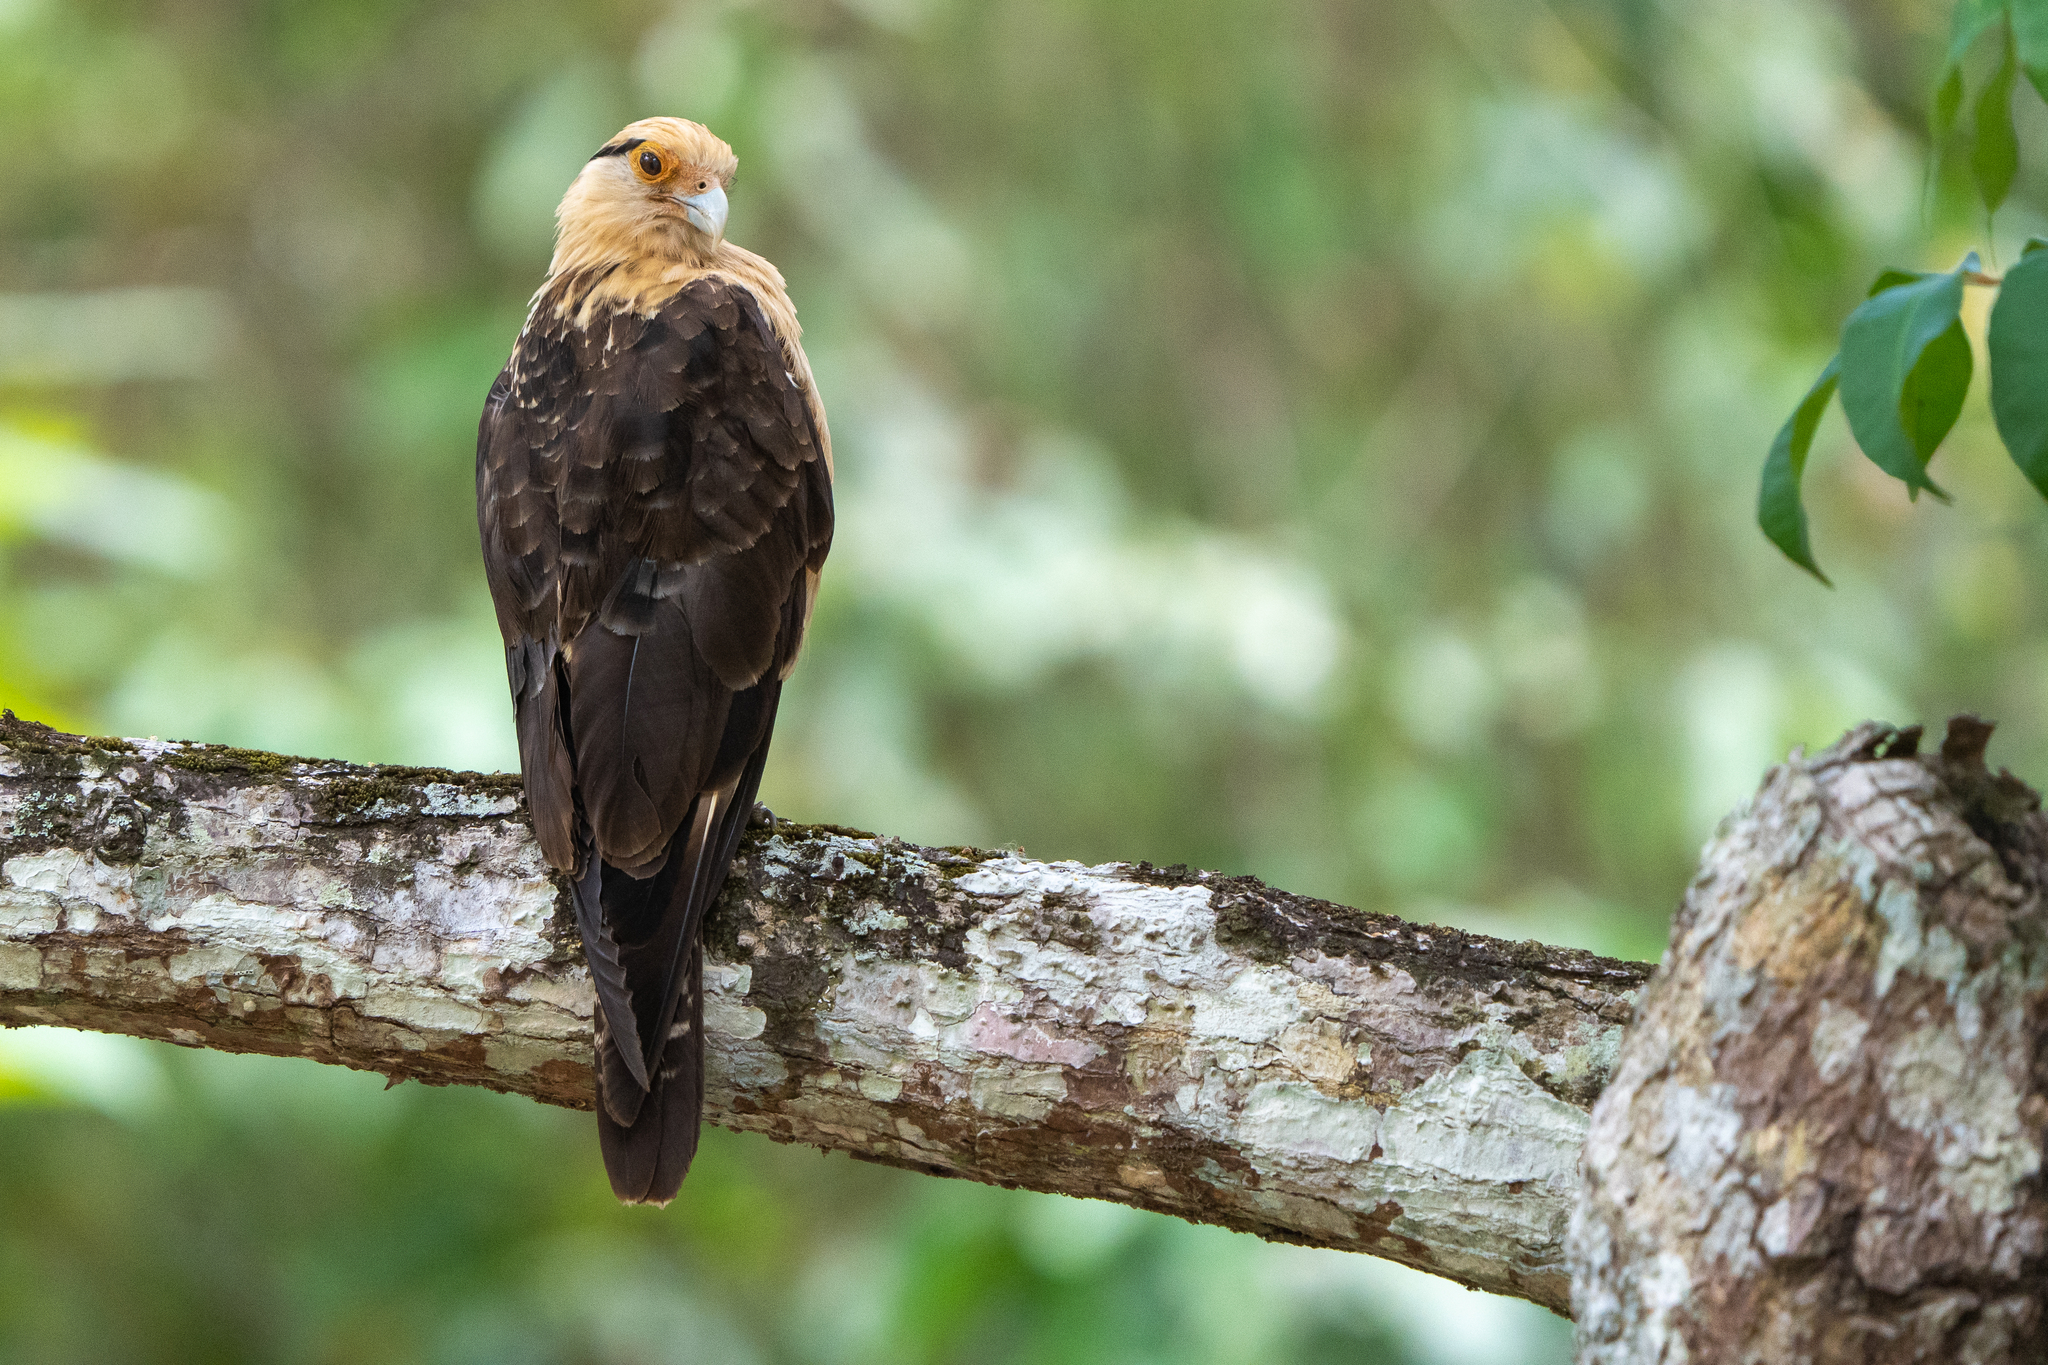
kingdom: Animalia
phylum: Chordata
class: Aves
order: Falconiformes
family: Falconidae
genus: Daptrius
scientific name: Daptrius
